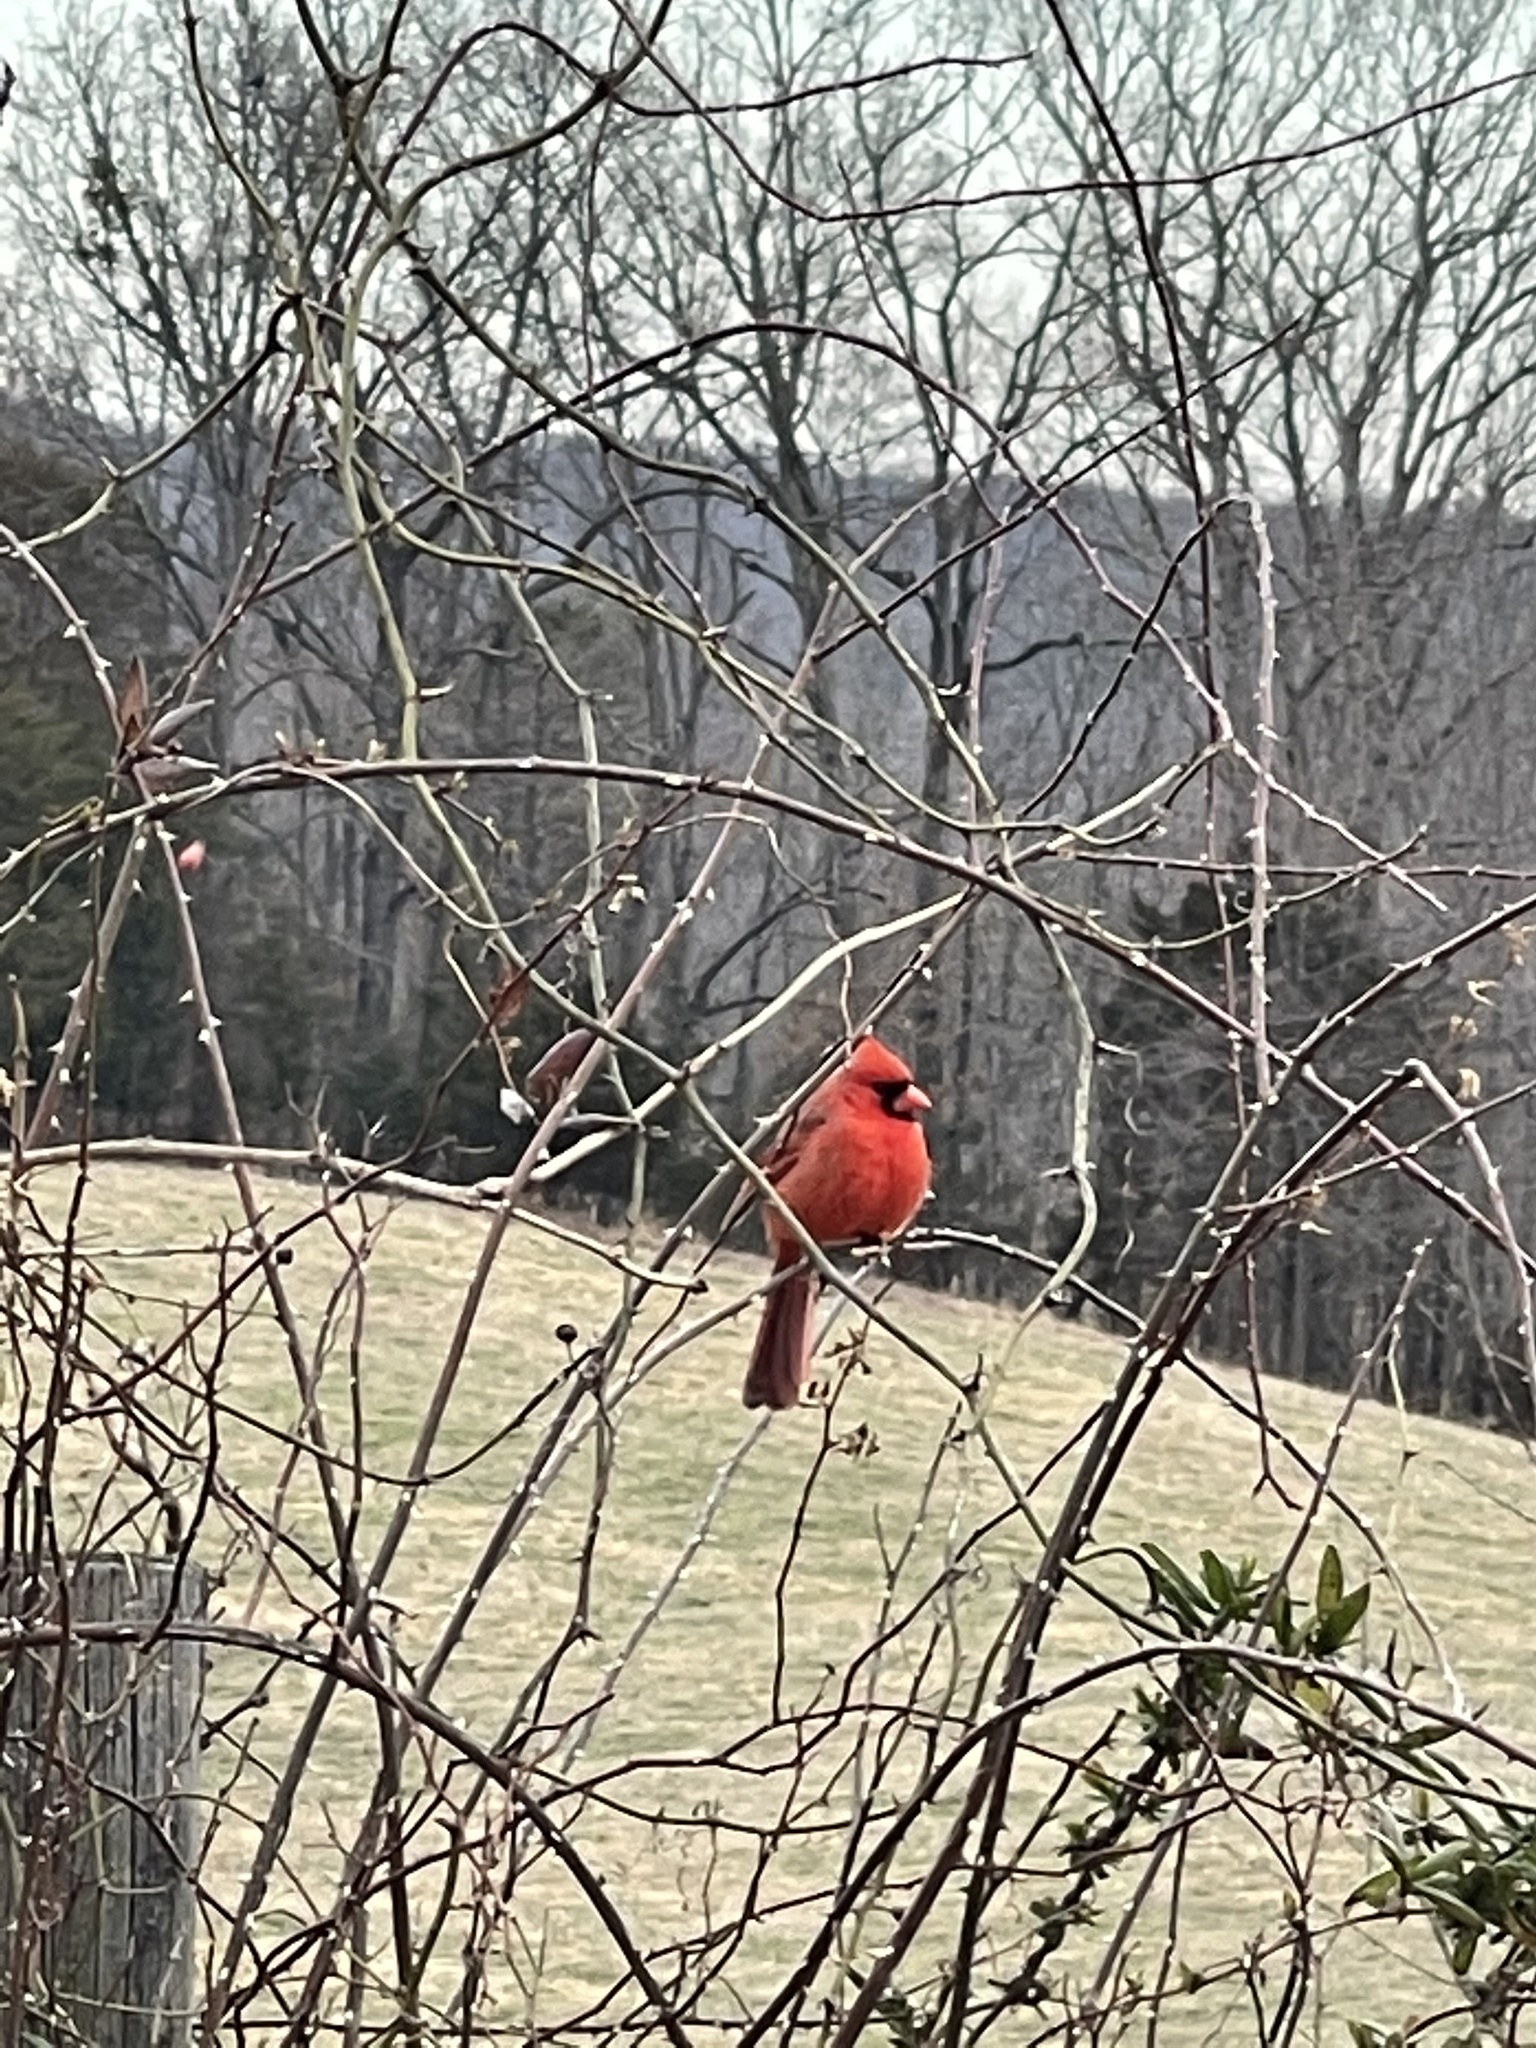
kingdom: Animalia
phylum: Chordata
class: Aves
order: Passeriformes
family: Cardinalidae
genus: Cardinalis
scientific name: Cardinalis cardinalis
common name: Northern cardinal
